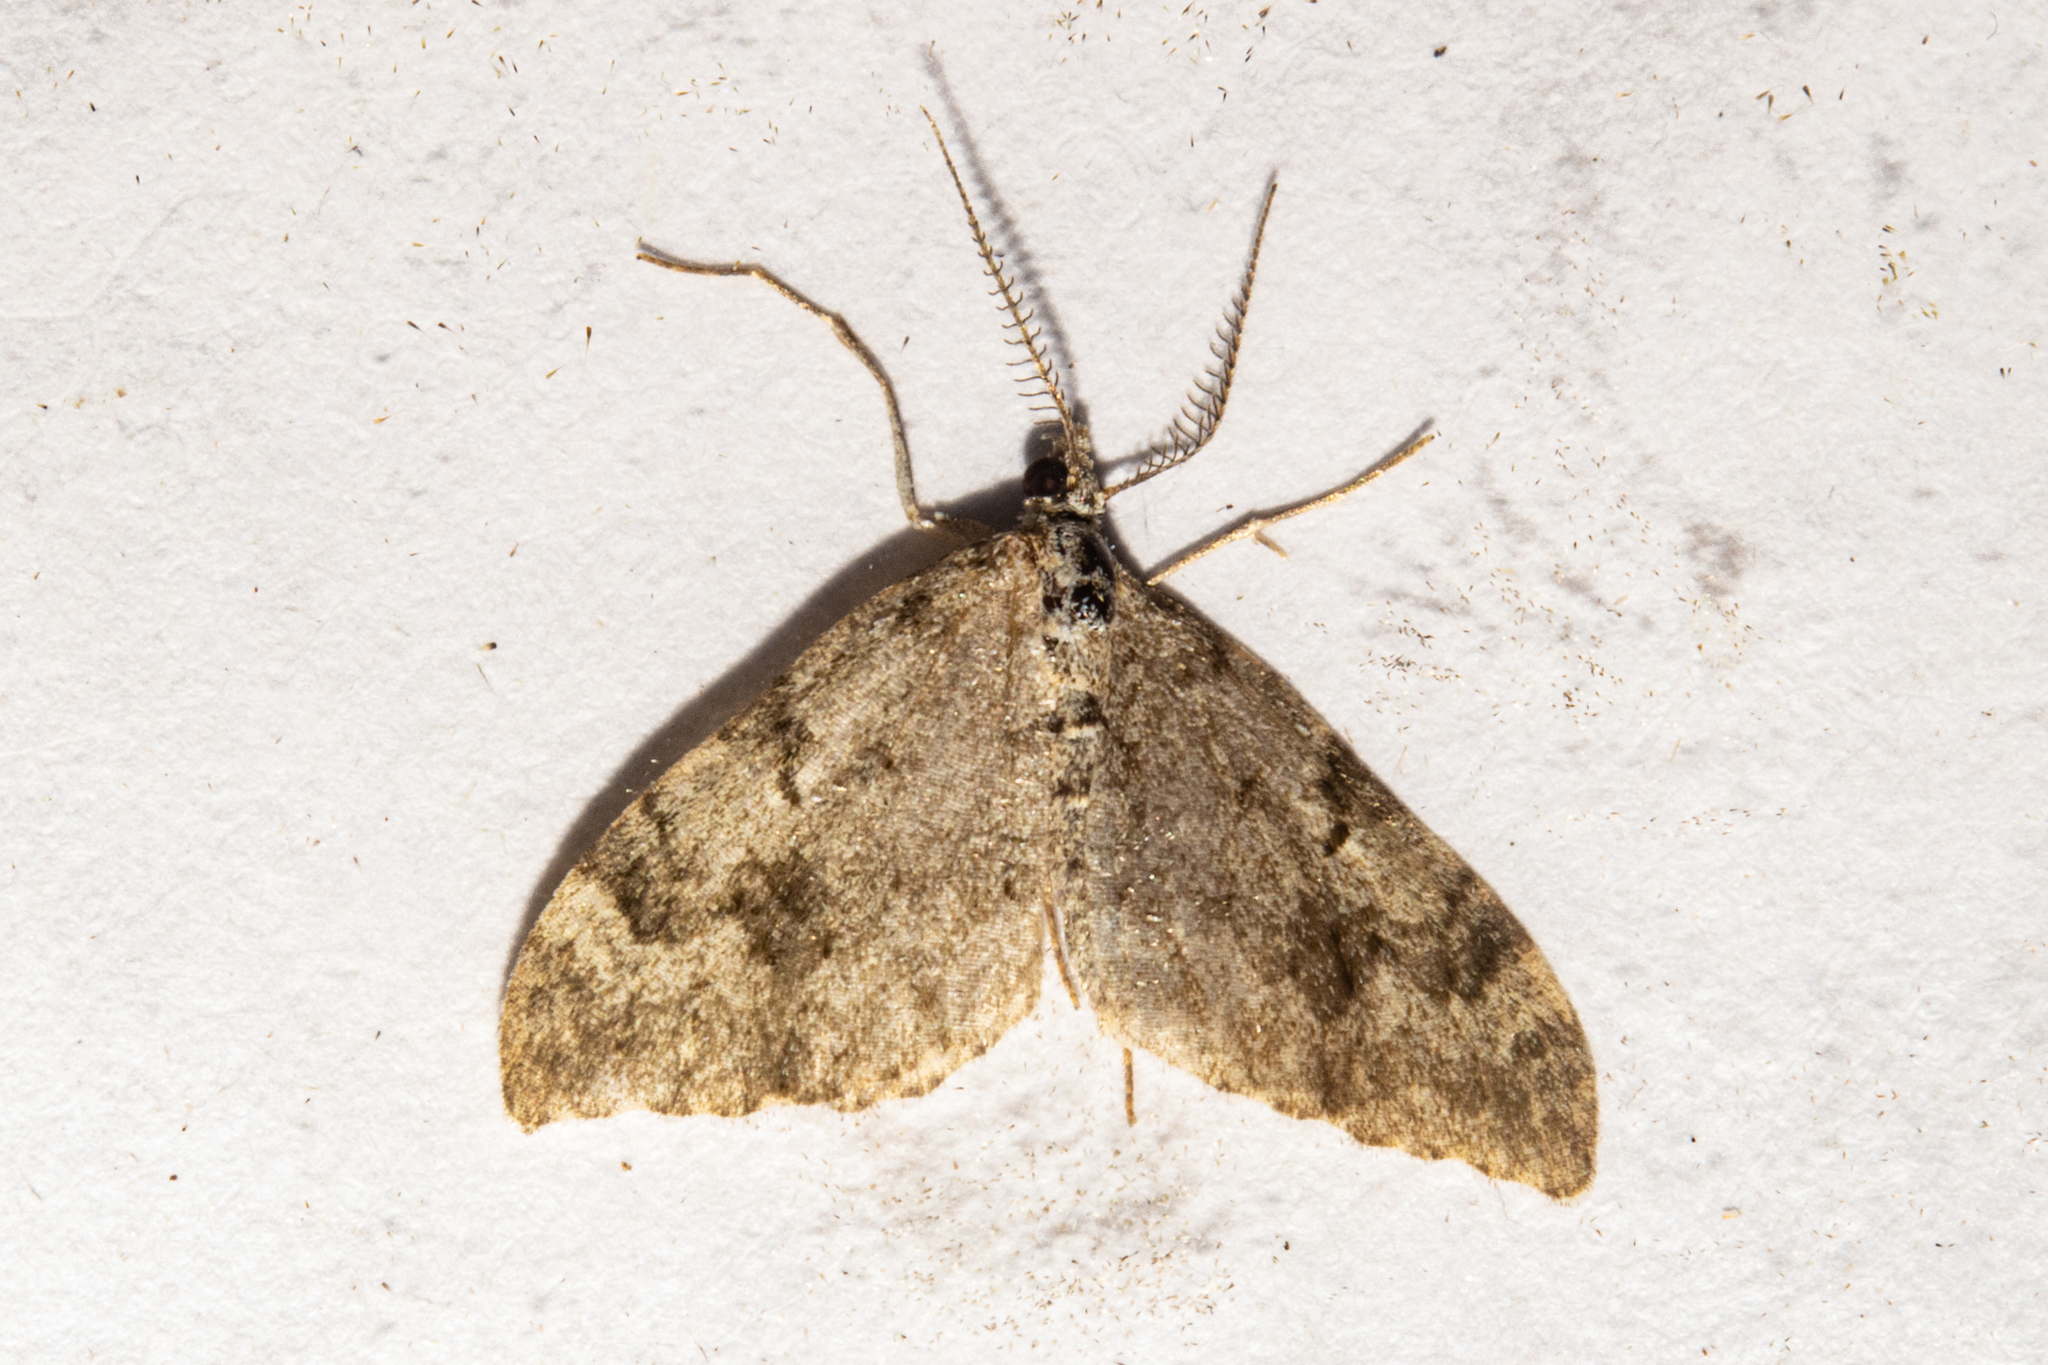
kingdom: Animalia
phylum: Arthropoda
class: Insecta
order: Lepidoptera
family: Geometridae
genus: Helastia
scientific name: Helastia cinerearia
